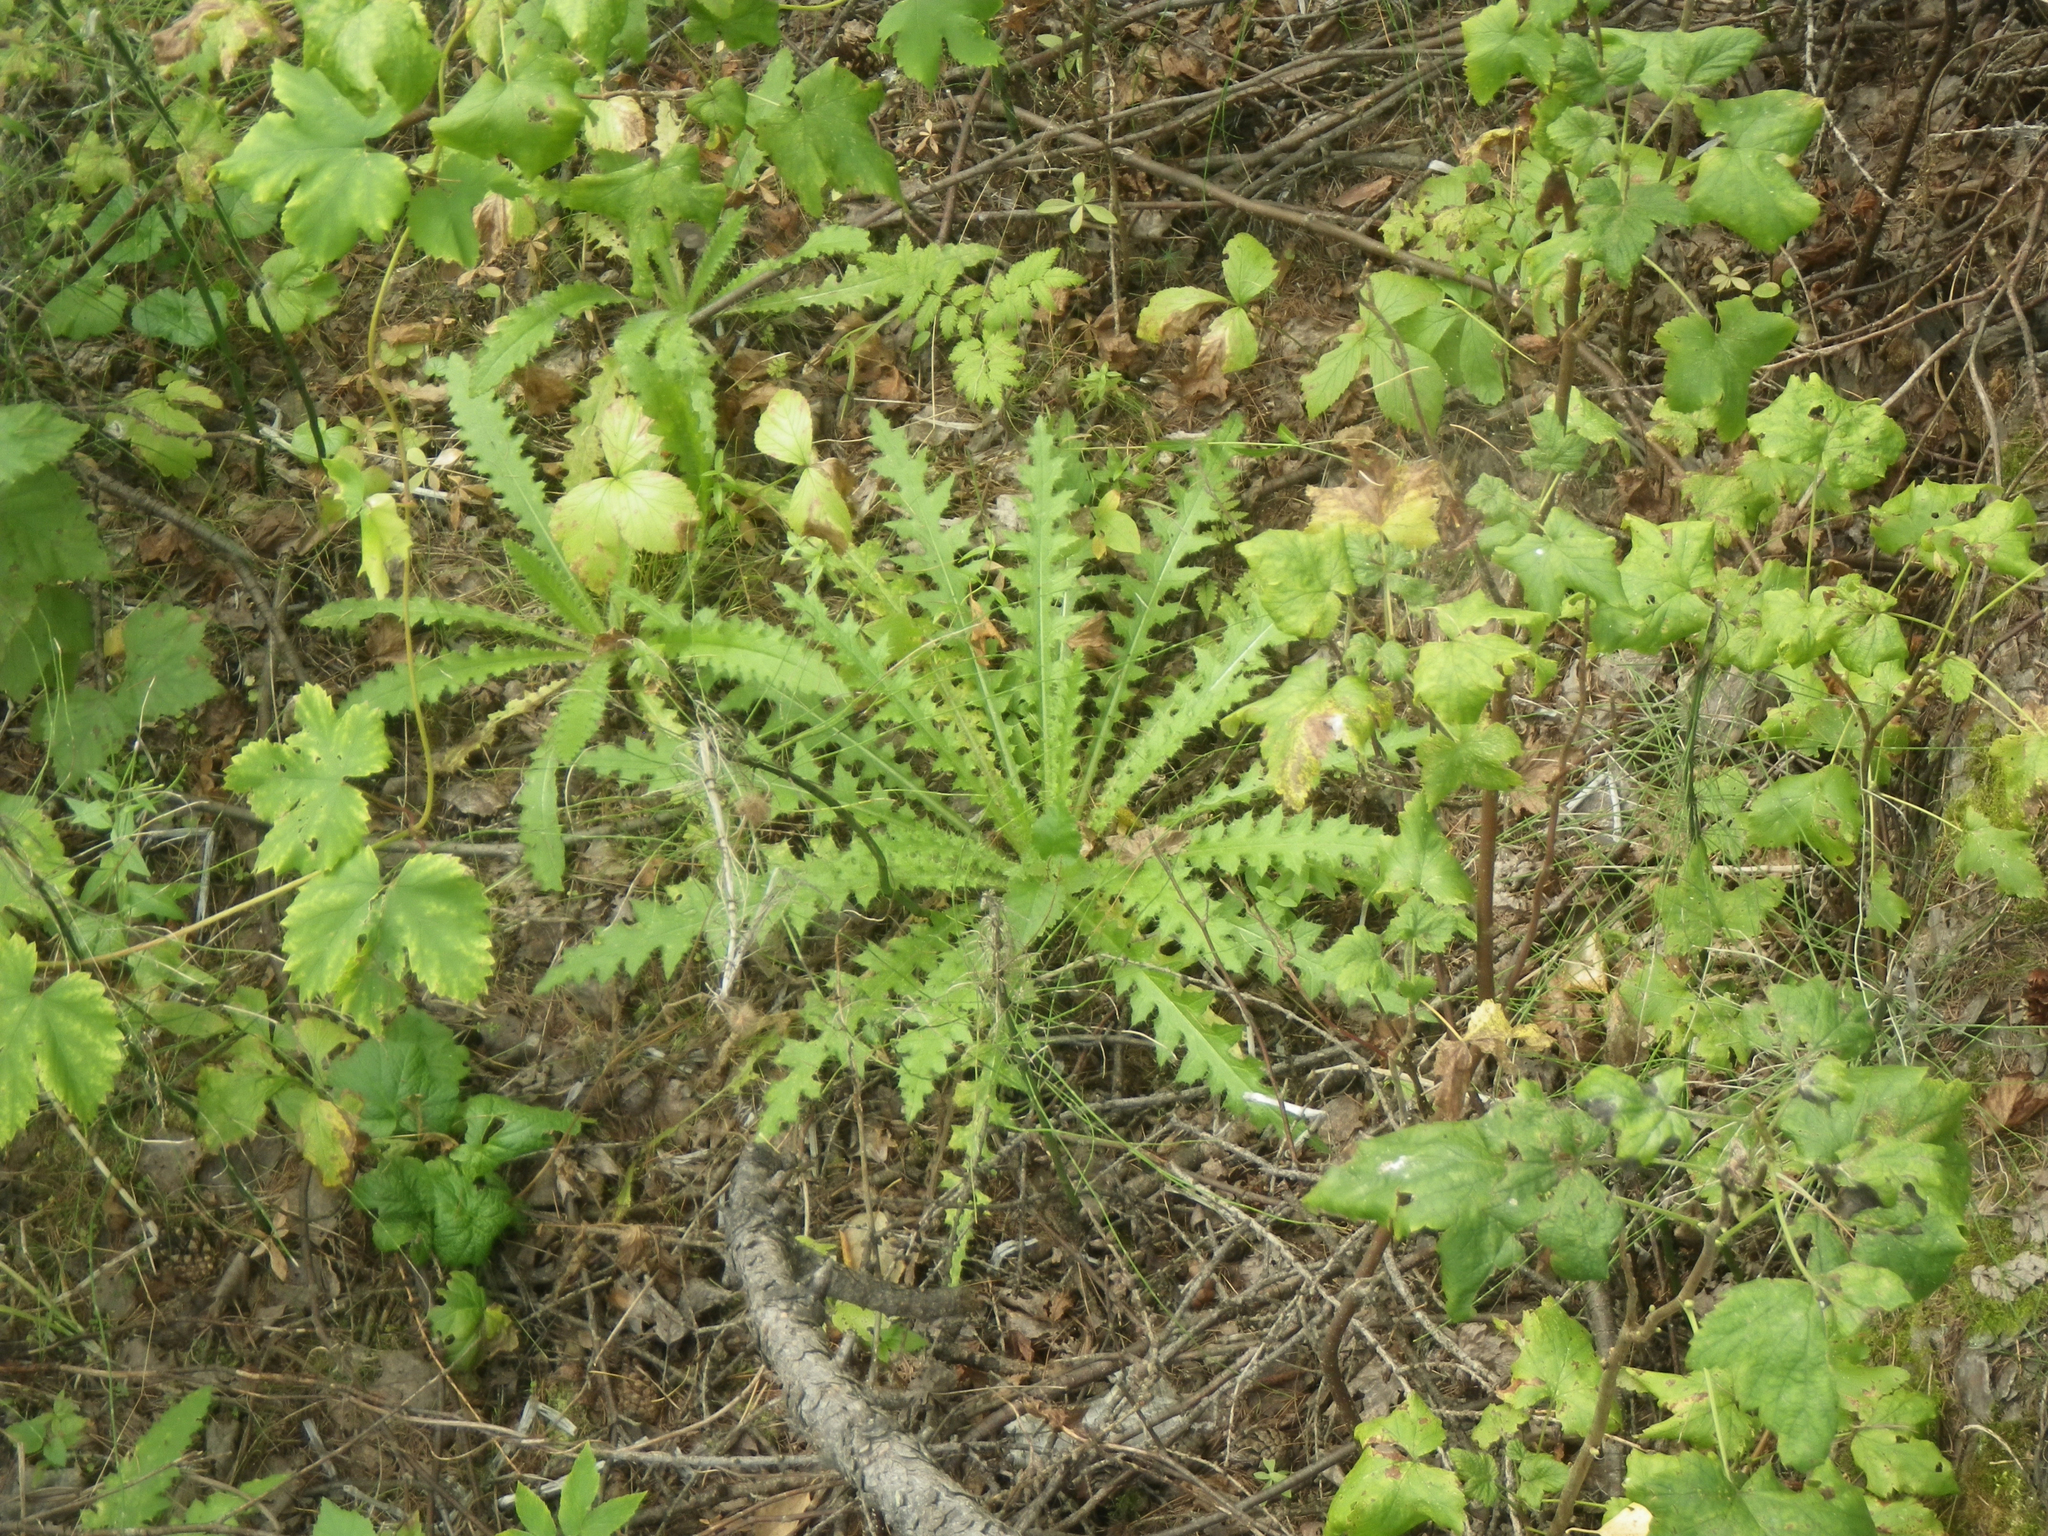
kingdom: Plantae
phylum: Tracheophyta
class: Magnoliopsida
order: Asterales
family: Asteraceae
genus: Cirsium
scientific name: Cirsium palustre
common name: Marsh thistle
